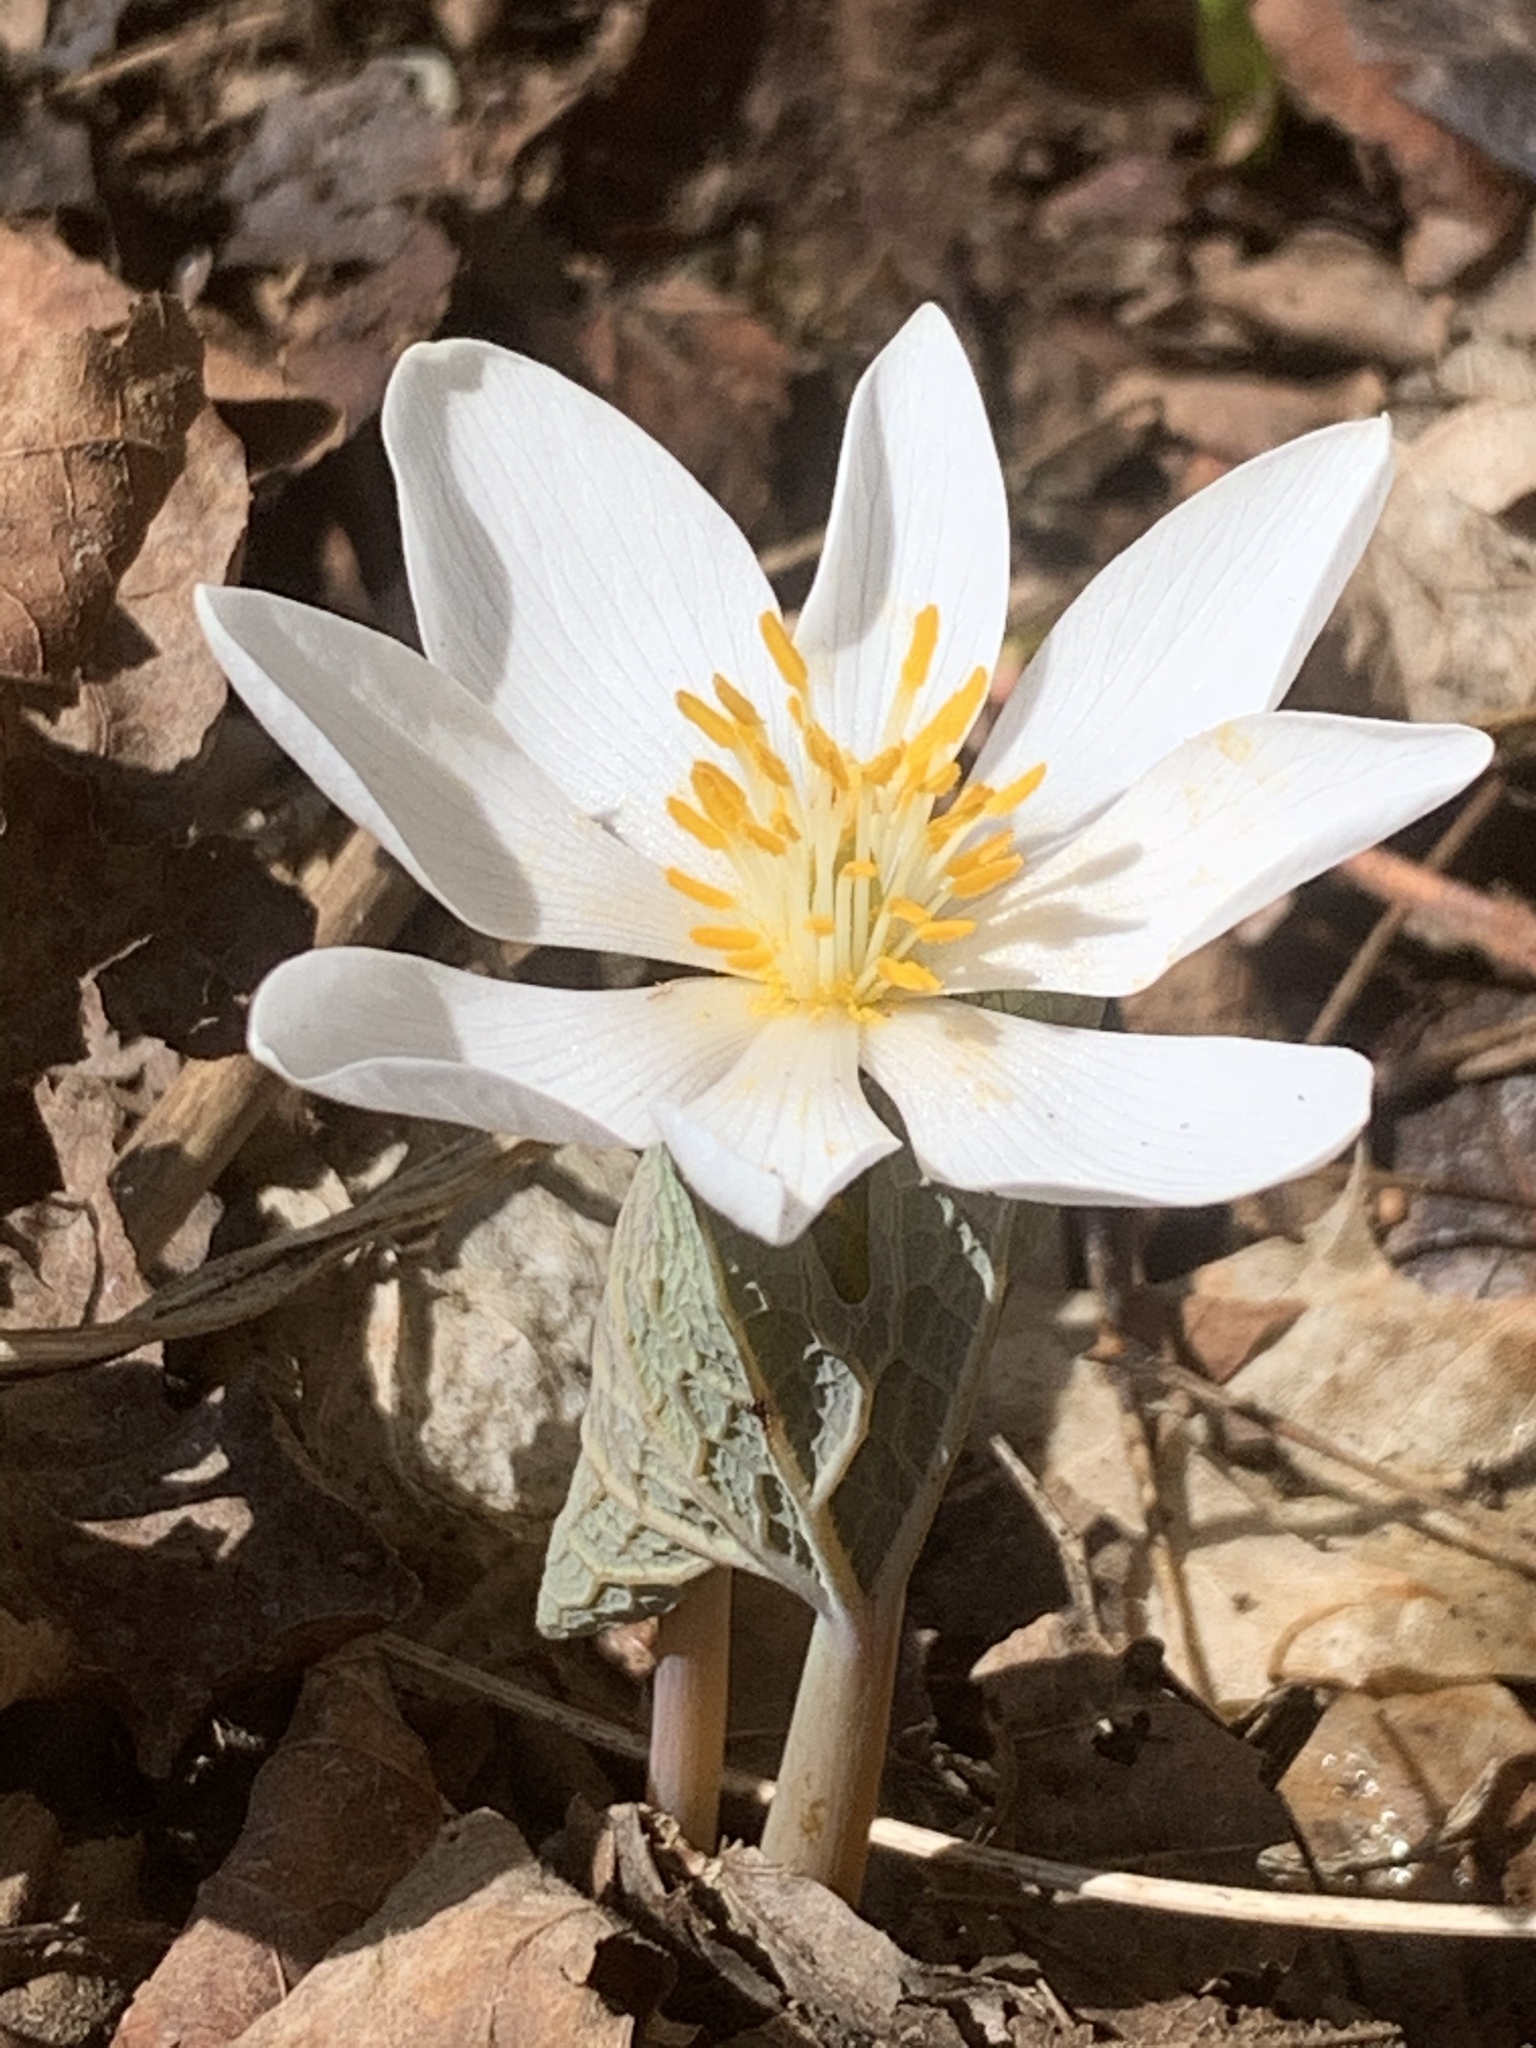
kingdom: Plantae
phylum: Tracheophyta
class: Magnoliopsida
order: Ranunculales
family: Papaveraceae
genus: Sanguinaria
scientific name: Sanguinaria canadensis
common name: Bloodroot
